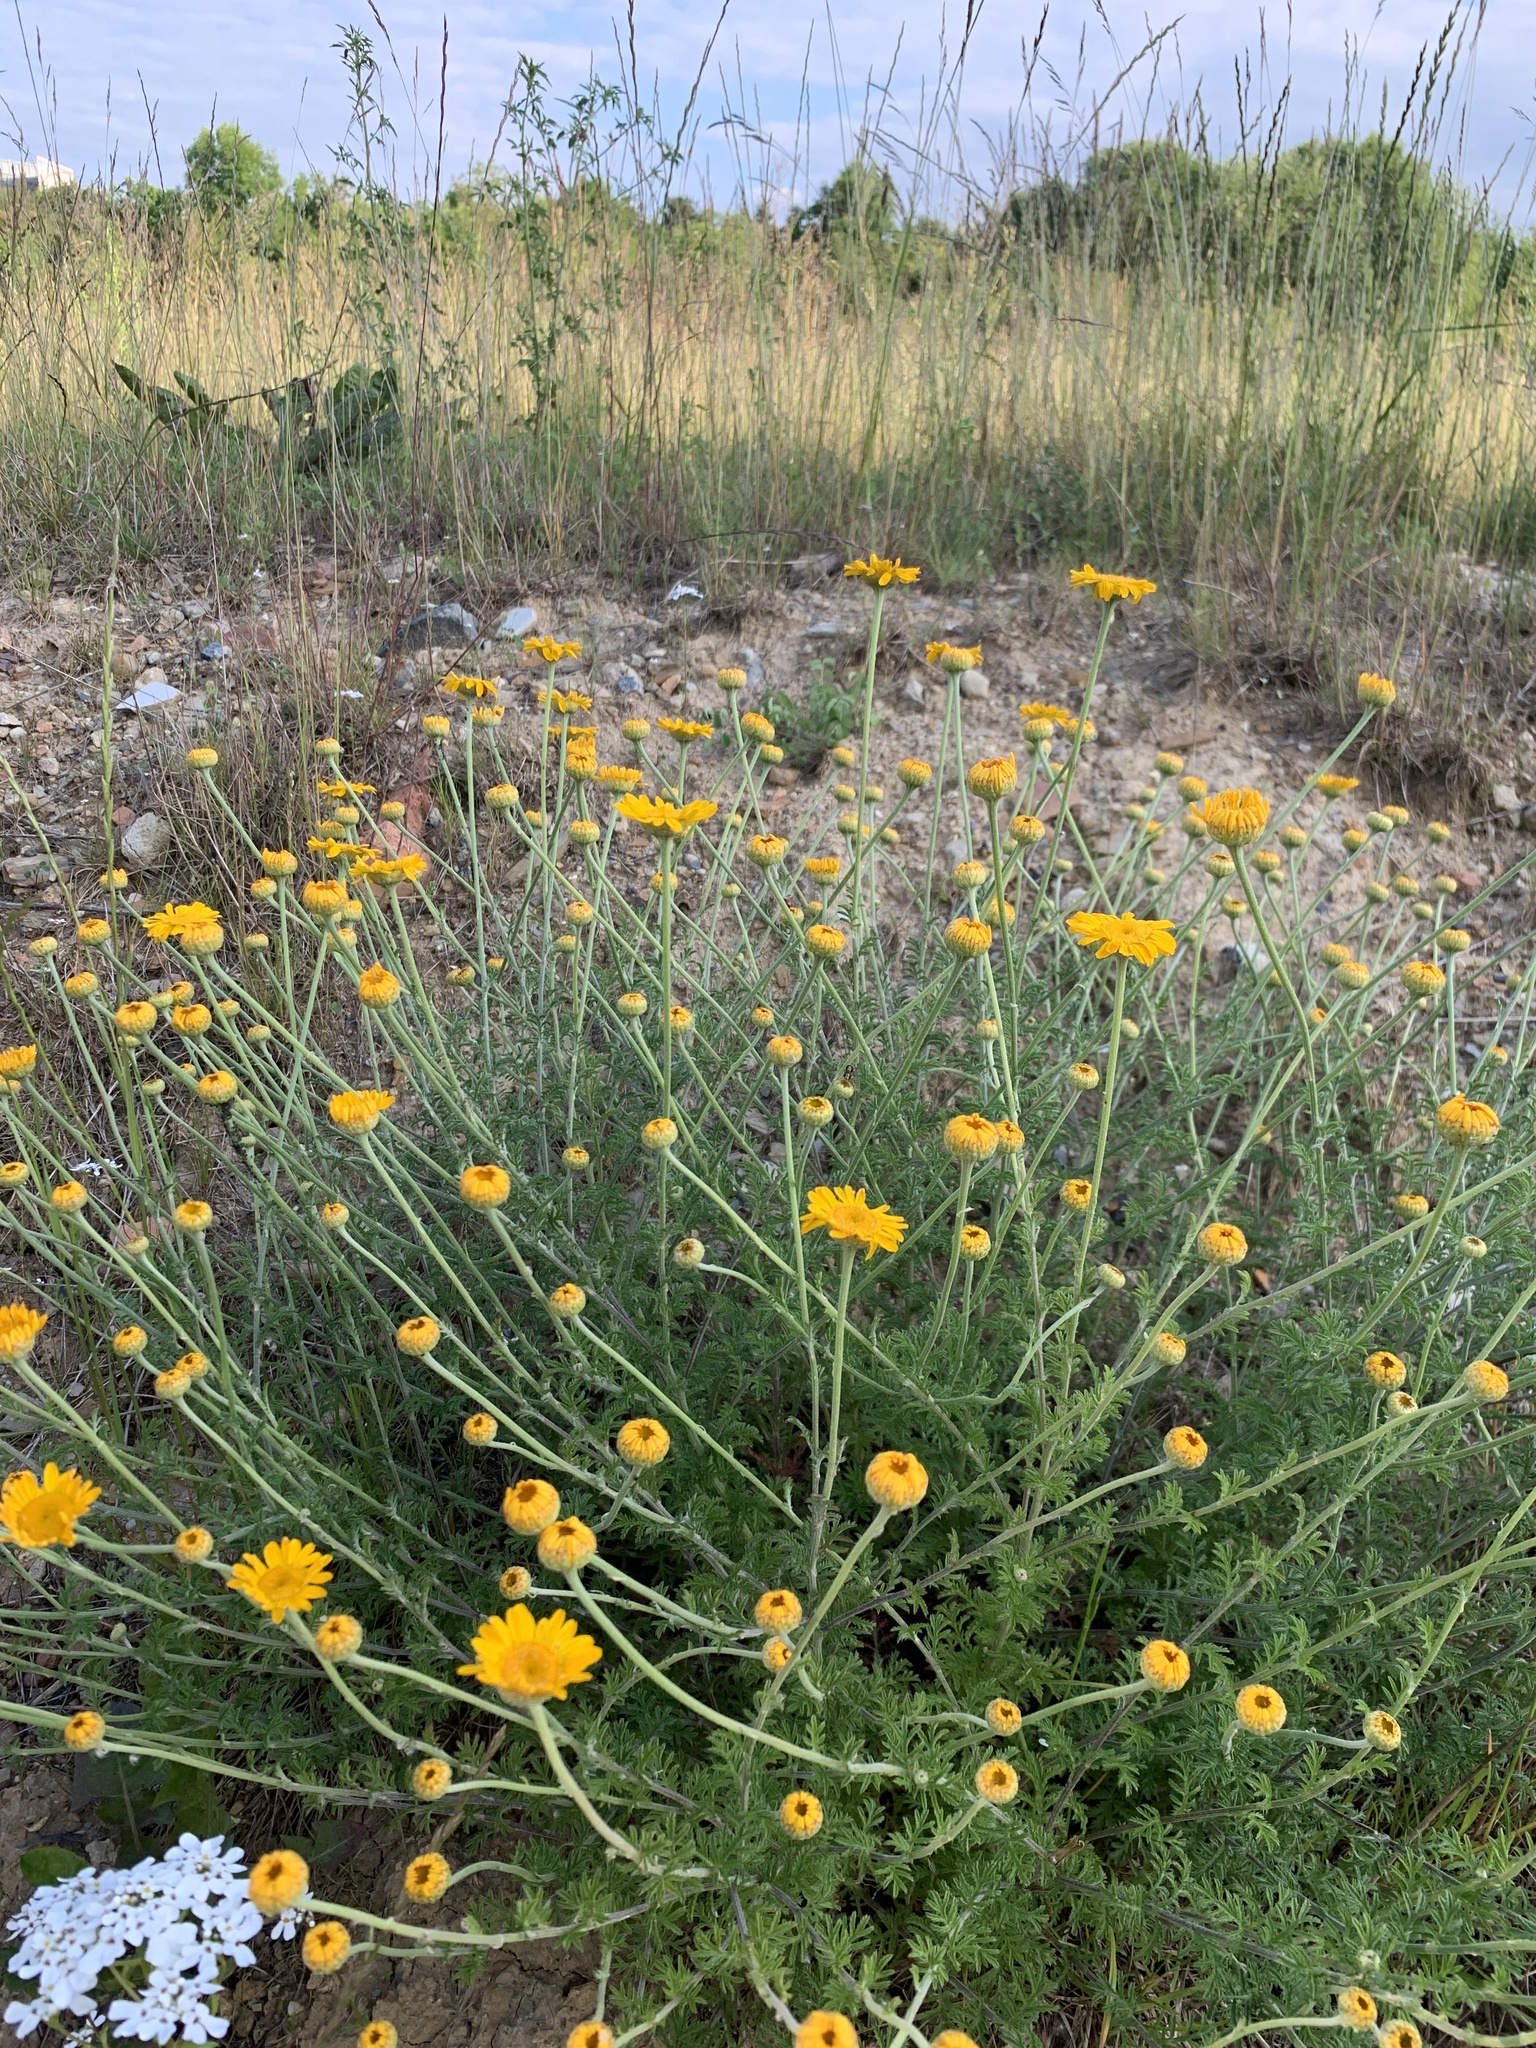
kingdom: Plantae
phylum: Tracheophyta
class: Magnoliopsida
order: Asterales
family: Asteraceae
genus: Cota
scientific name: Cota tinctoria
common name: Golden chamomile
